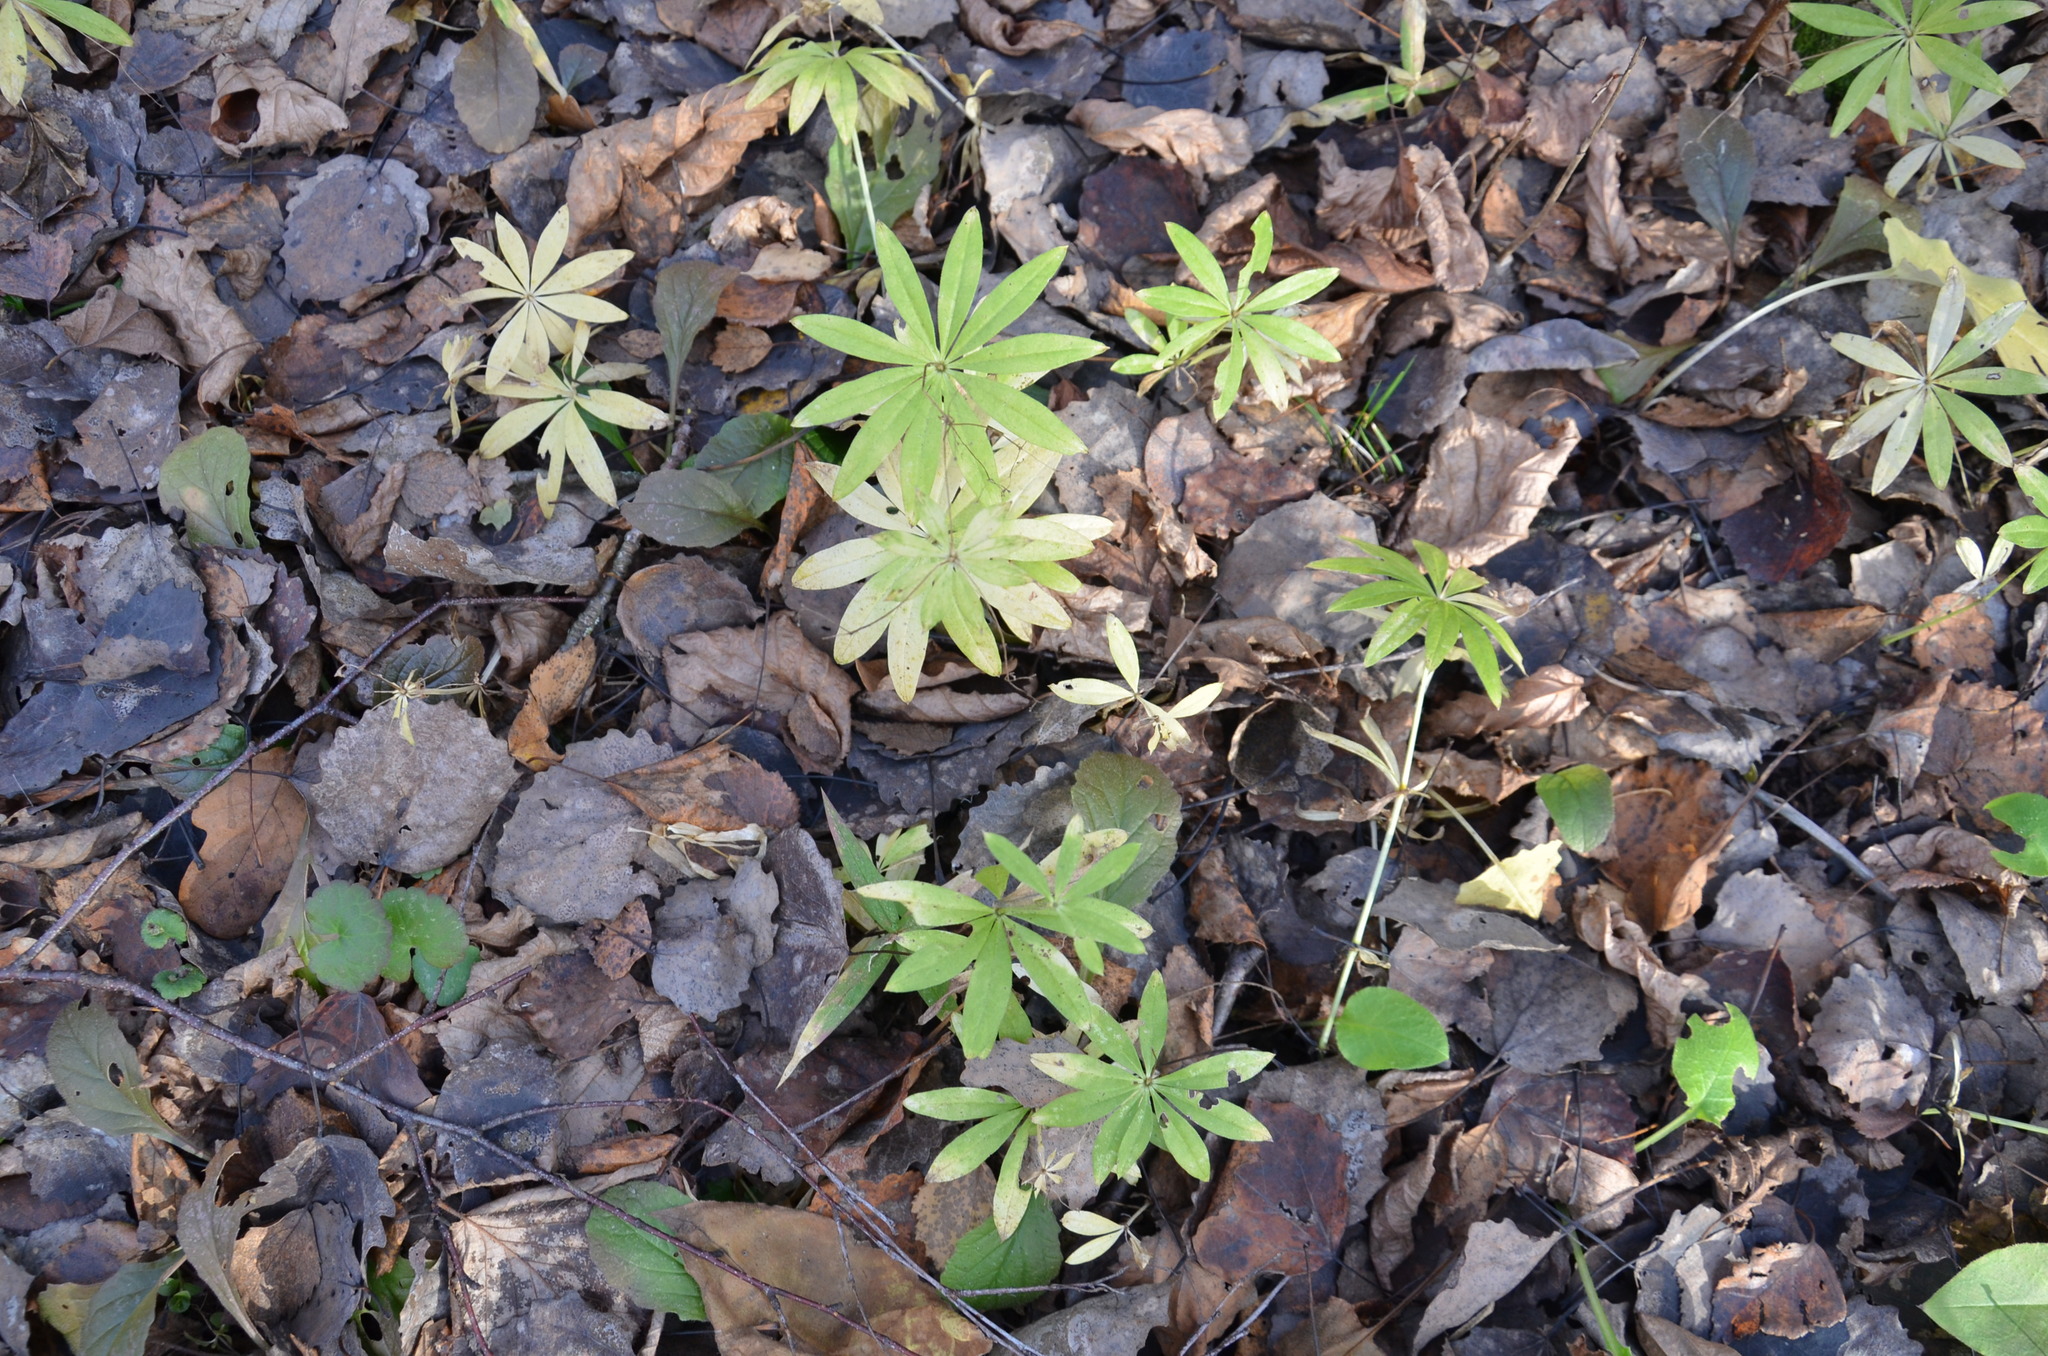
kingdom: Plantae
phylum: Tracheophyta
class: Magnoliopsida
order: Gentianales
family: Rubiaceae
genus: Galium
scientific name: Galium odoratum
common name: Sweet woodruff
